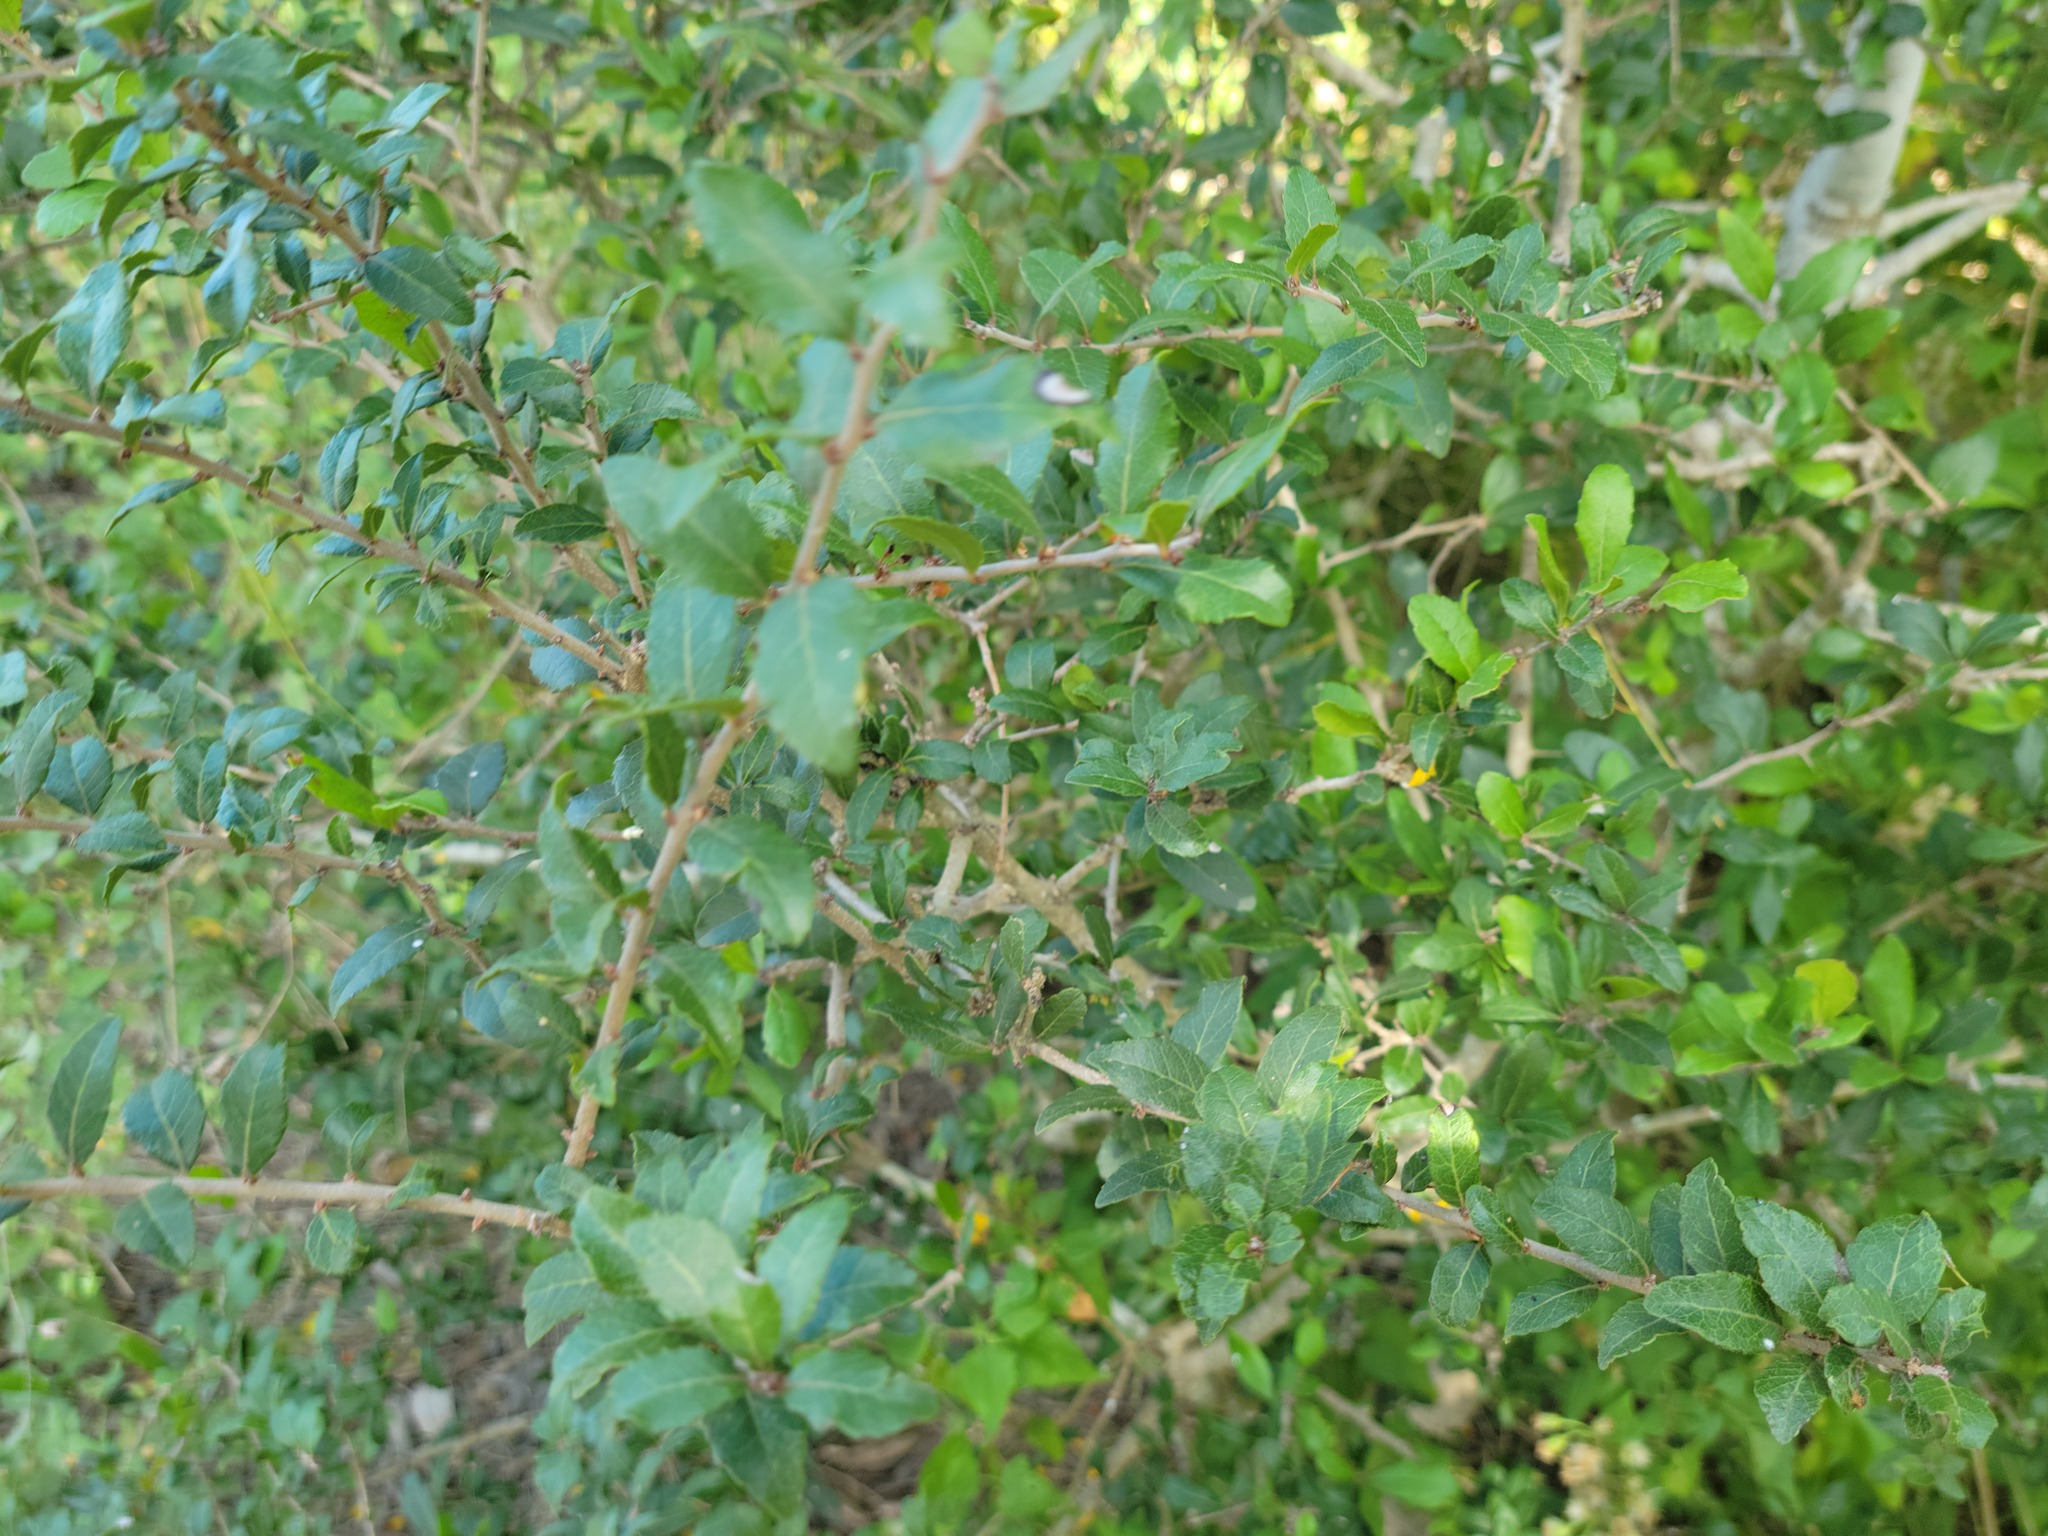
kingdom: Plantae
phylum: Tracheophyta
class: Magnoliopsida
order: Malpighiales
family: Salicaceae
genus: Xylosma
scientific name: Xylosma flexuosa
